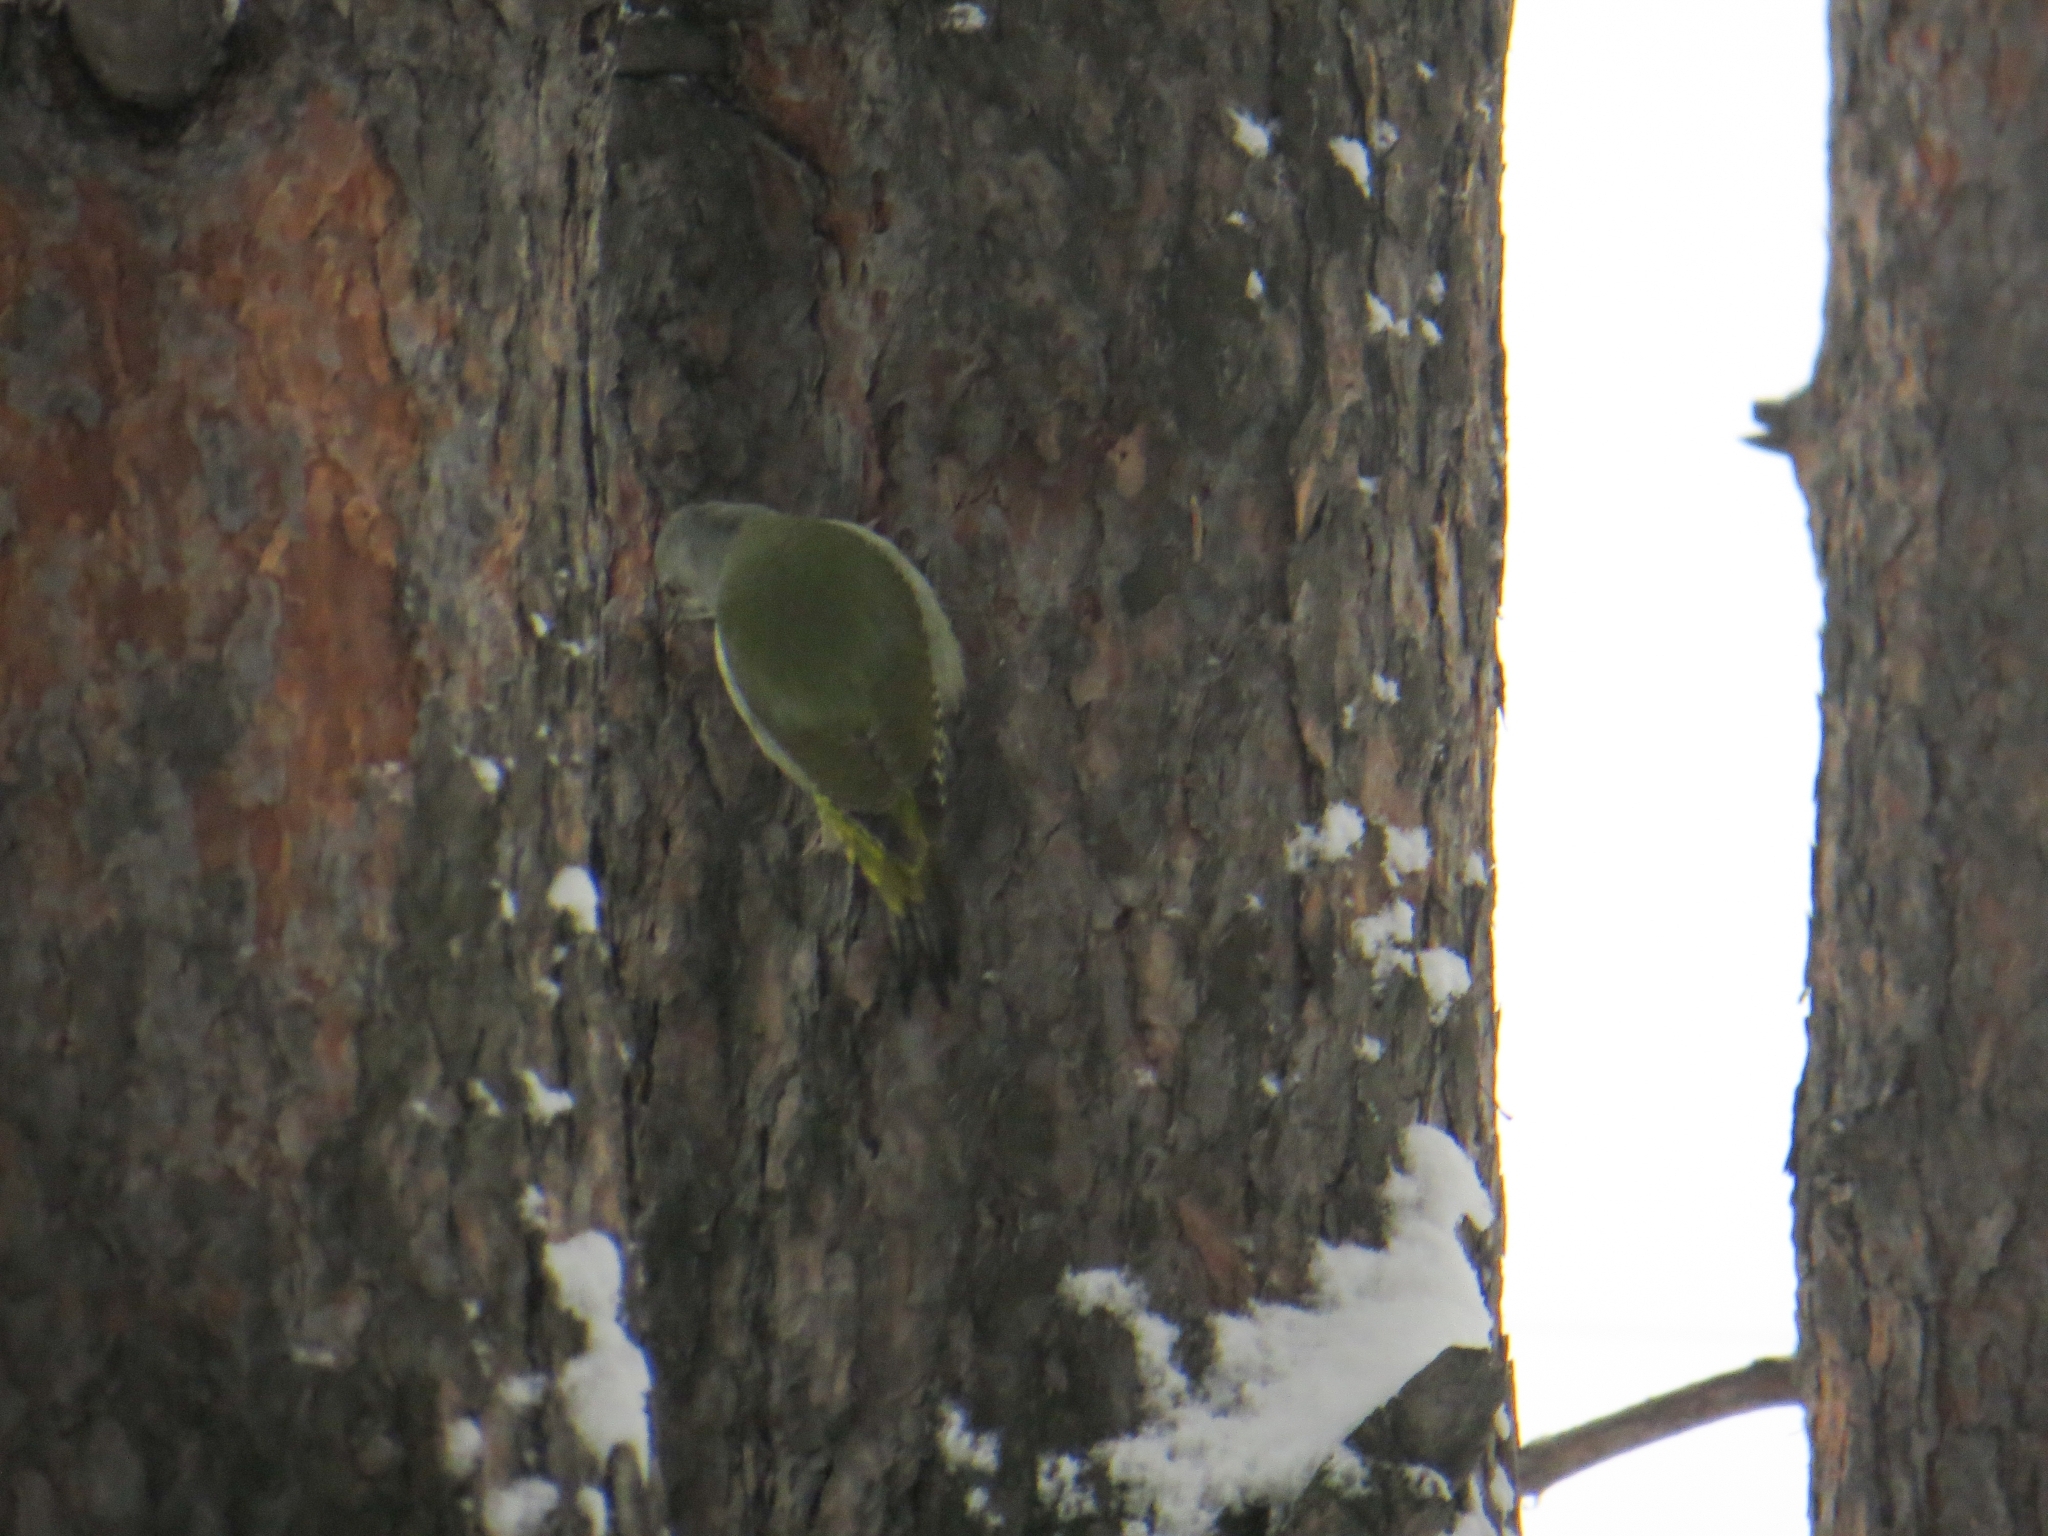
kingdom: Animalia
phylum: Chordata
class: Aves
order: Piciformes
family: Picidae
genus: Picus
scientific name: Picus canus
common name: Grey-headed woodpecker
